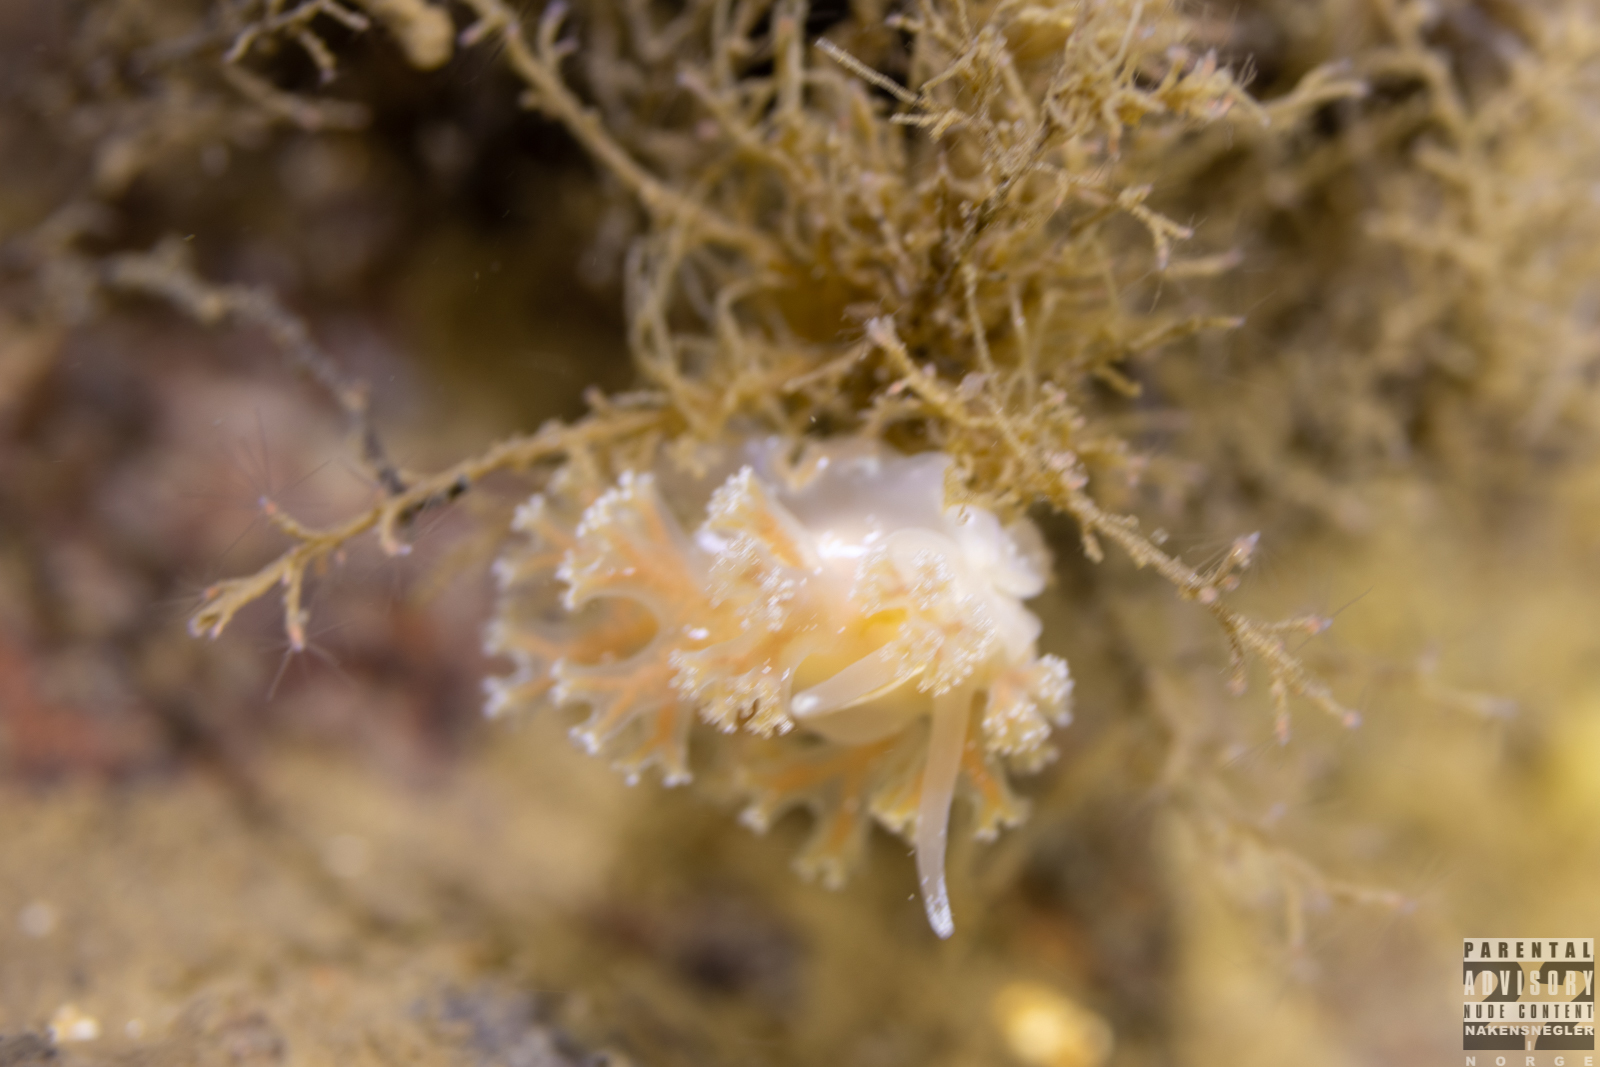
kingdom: Animalia
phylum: Mollusca
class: Gastropoda
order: Nudibranchia
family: Heroidae
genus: Hero
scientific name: Hero formosa
